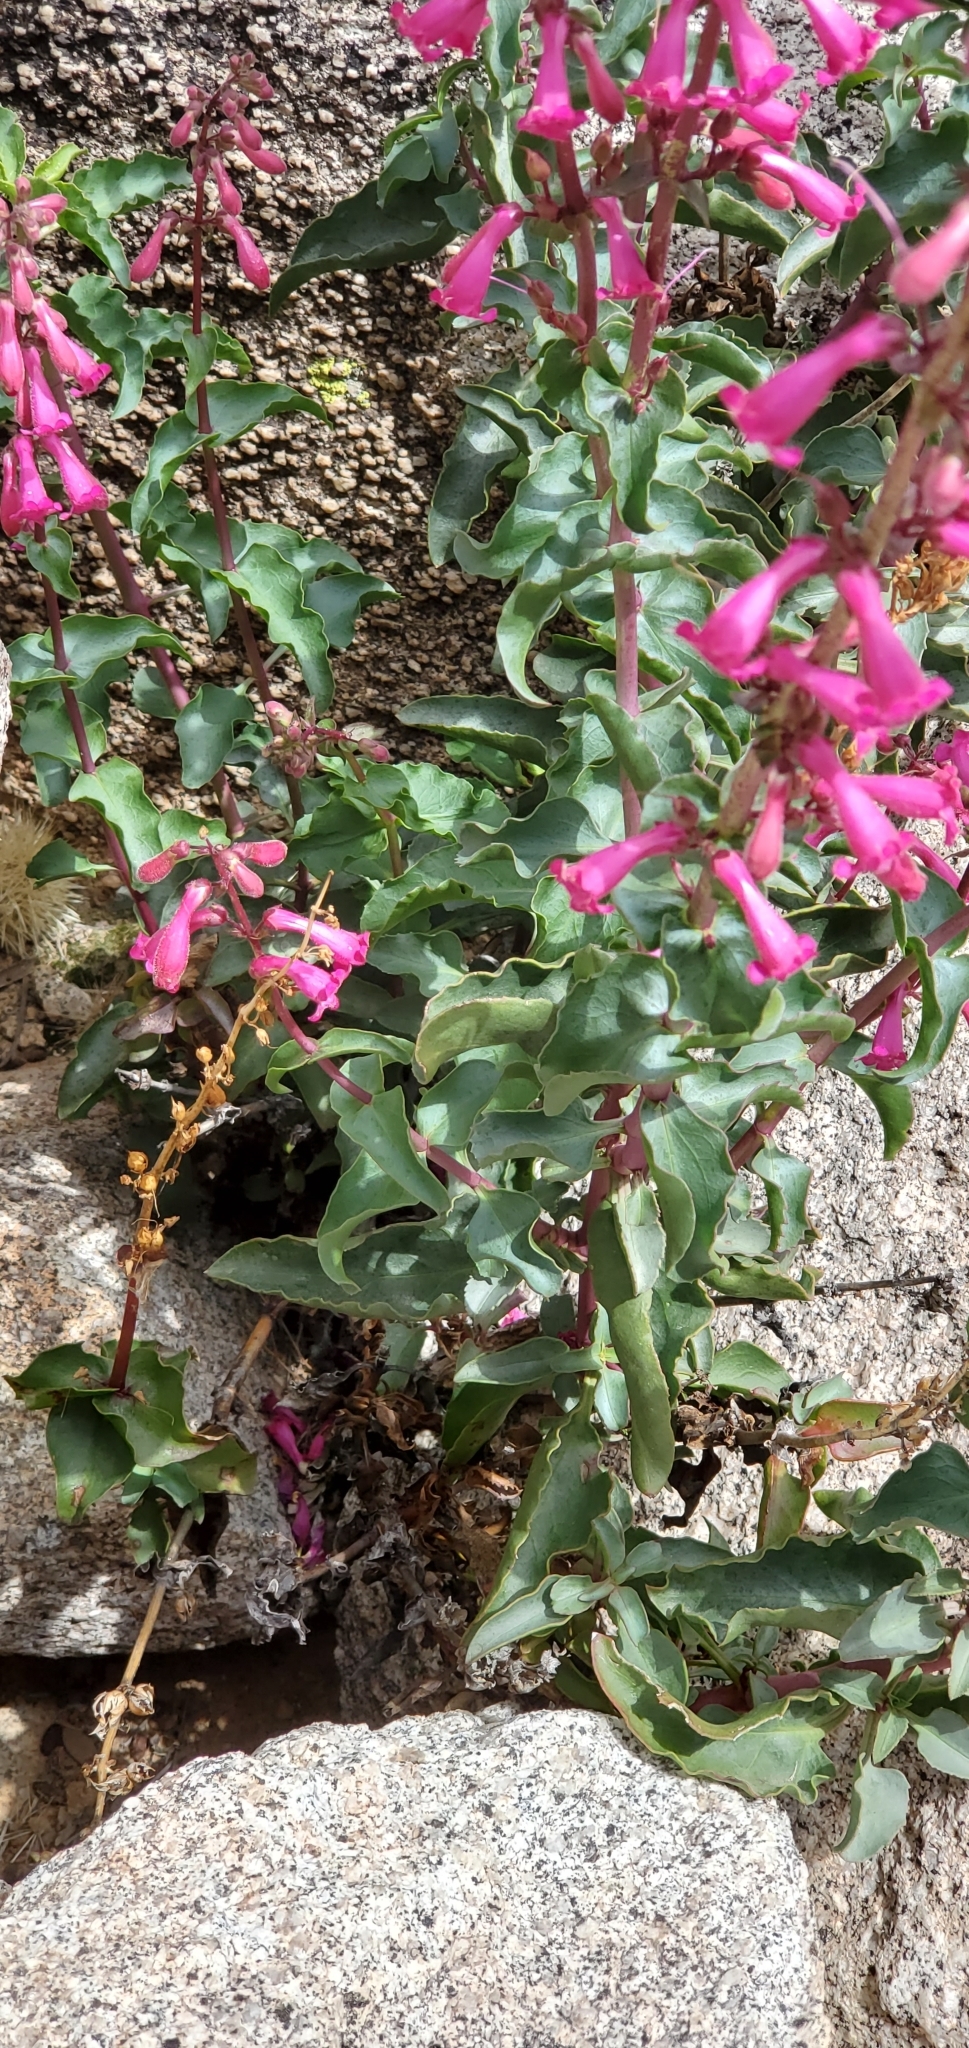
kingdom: Plantae
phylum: Tracheophyta
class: Magnoliopsida
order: Lamiales
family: Plantaginaceae
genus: Penstemon
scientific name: Penstemon clevelandii
